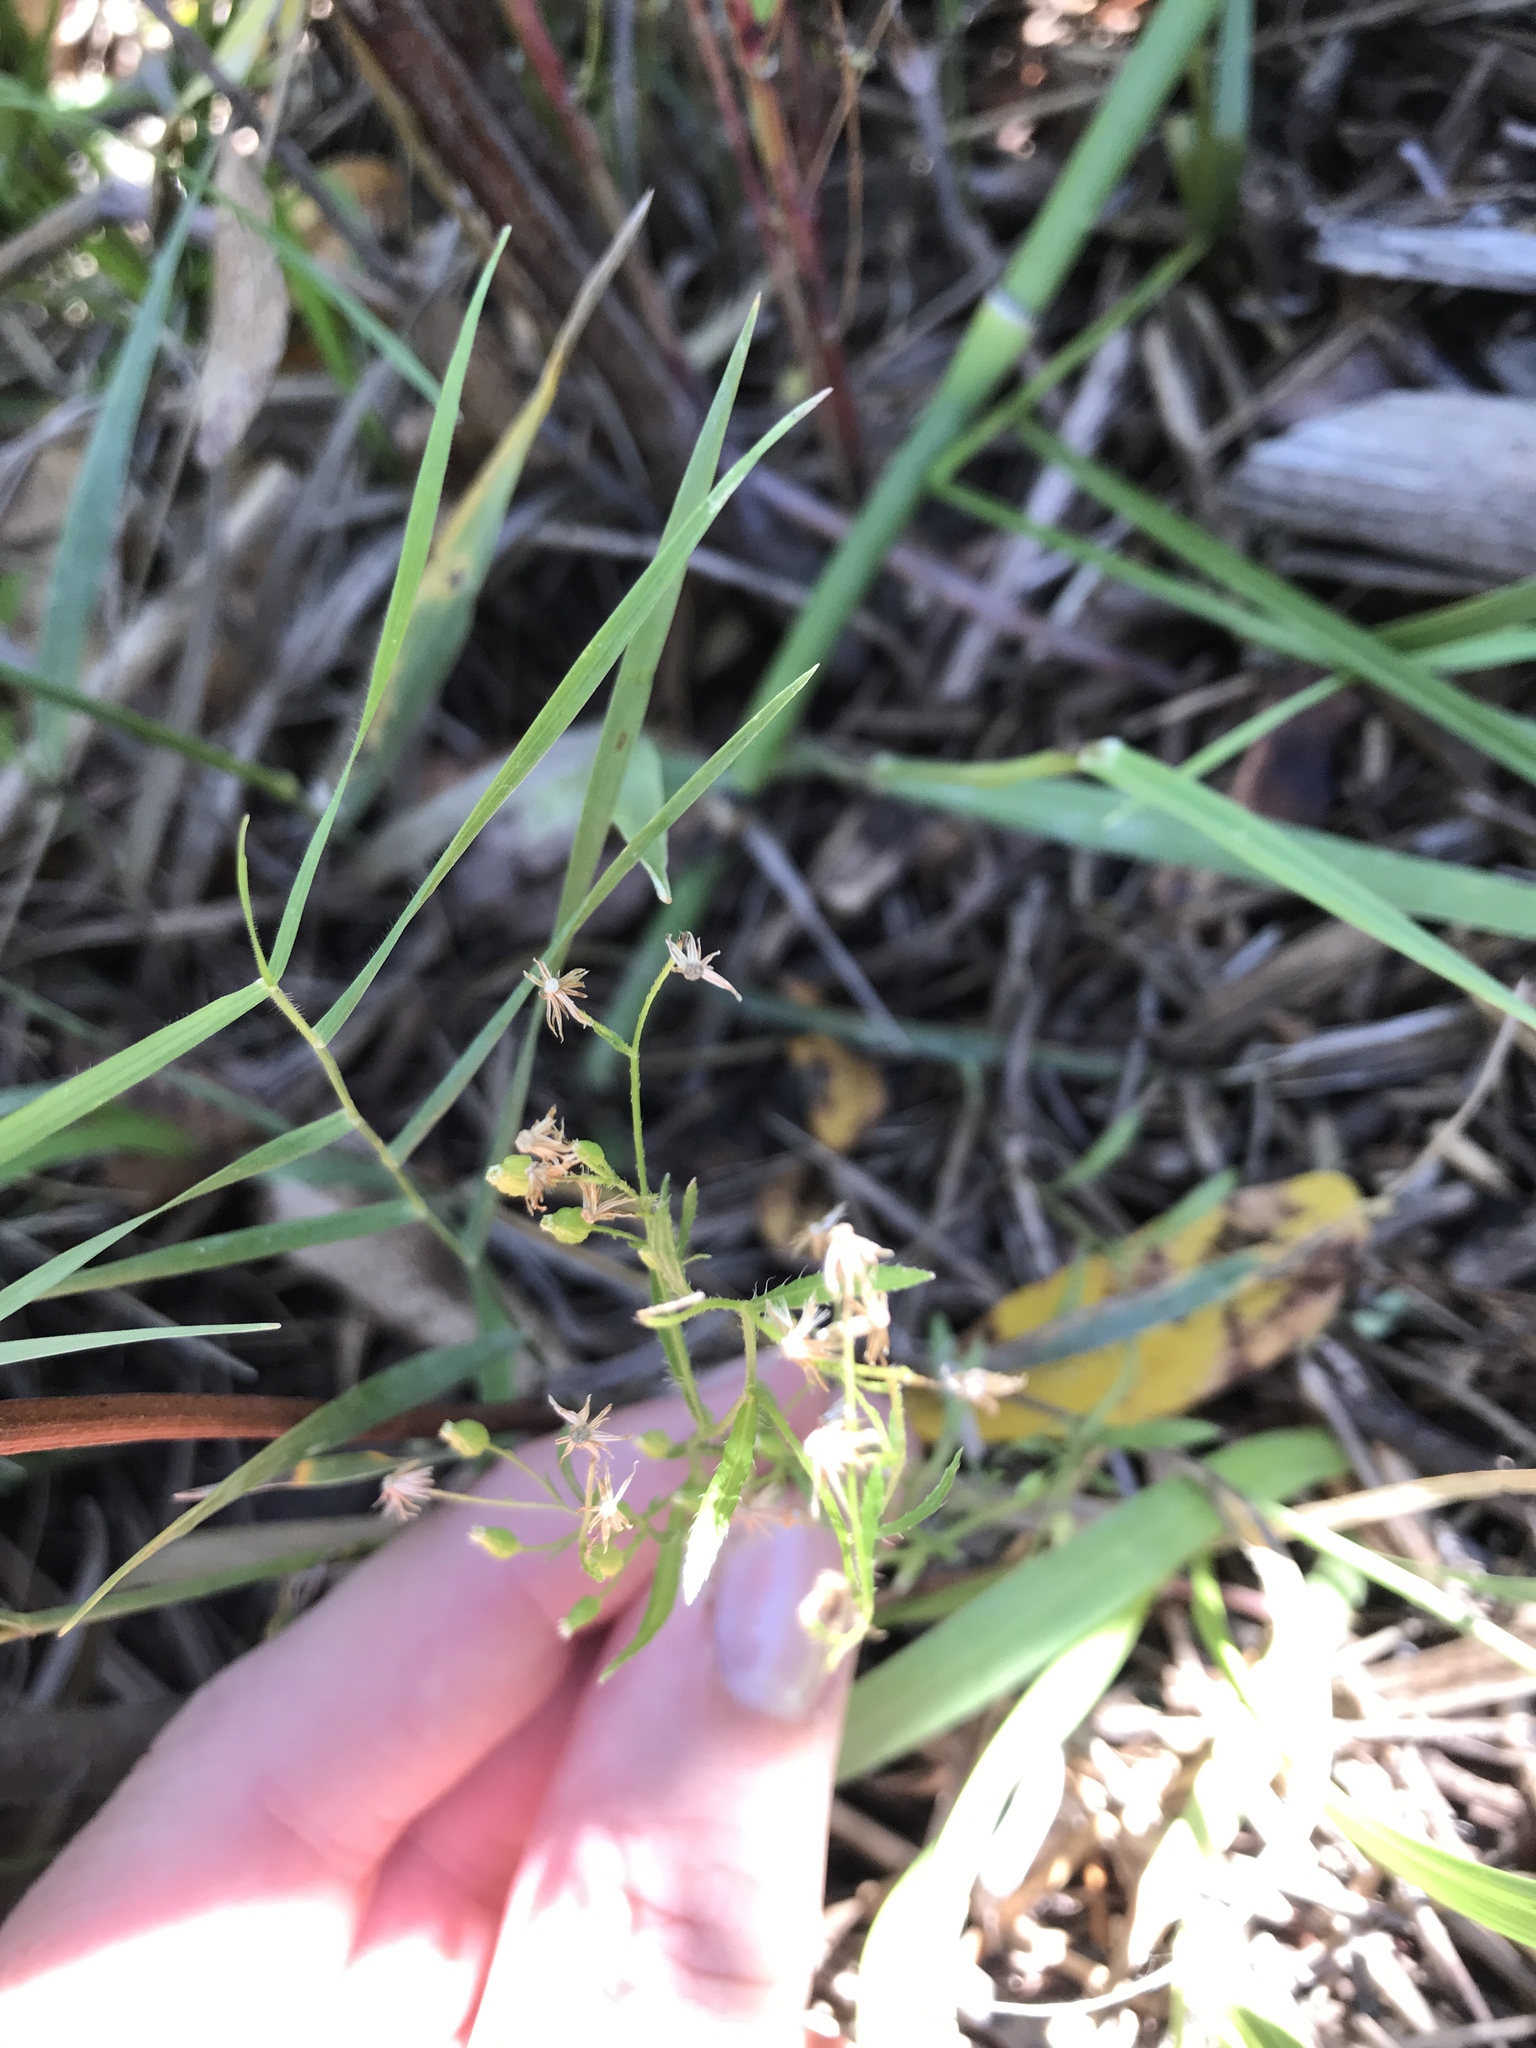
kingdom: Plantae
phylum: Tracheophyta
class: Magnoliopsida
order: Asterales
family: Asteraceae
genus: Erigeron
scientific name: Erigeron canadensis
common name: Canadian fleabane
